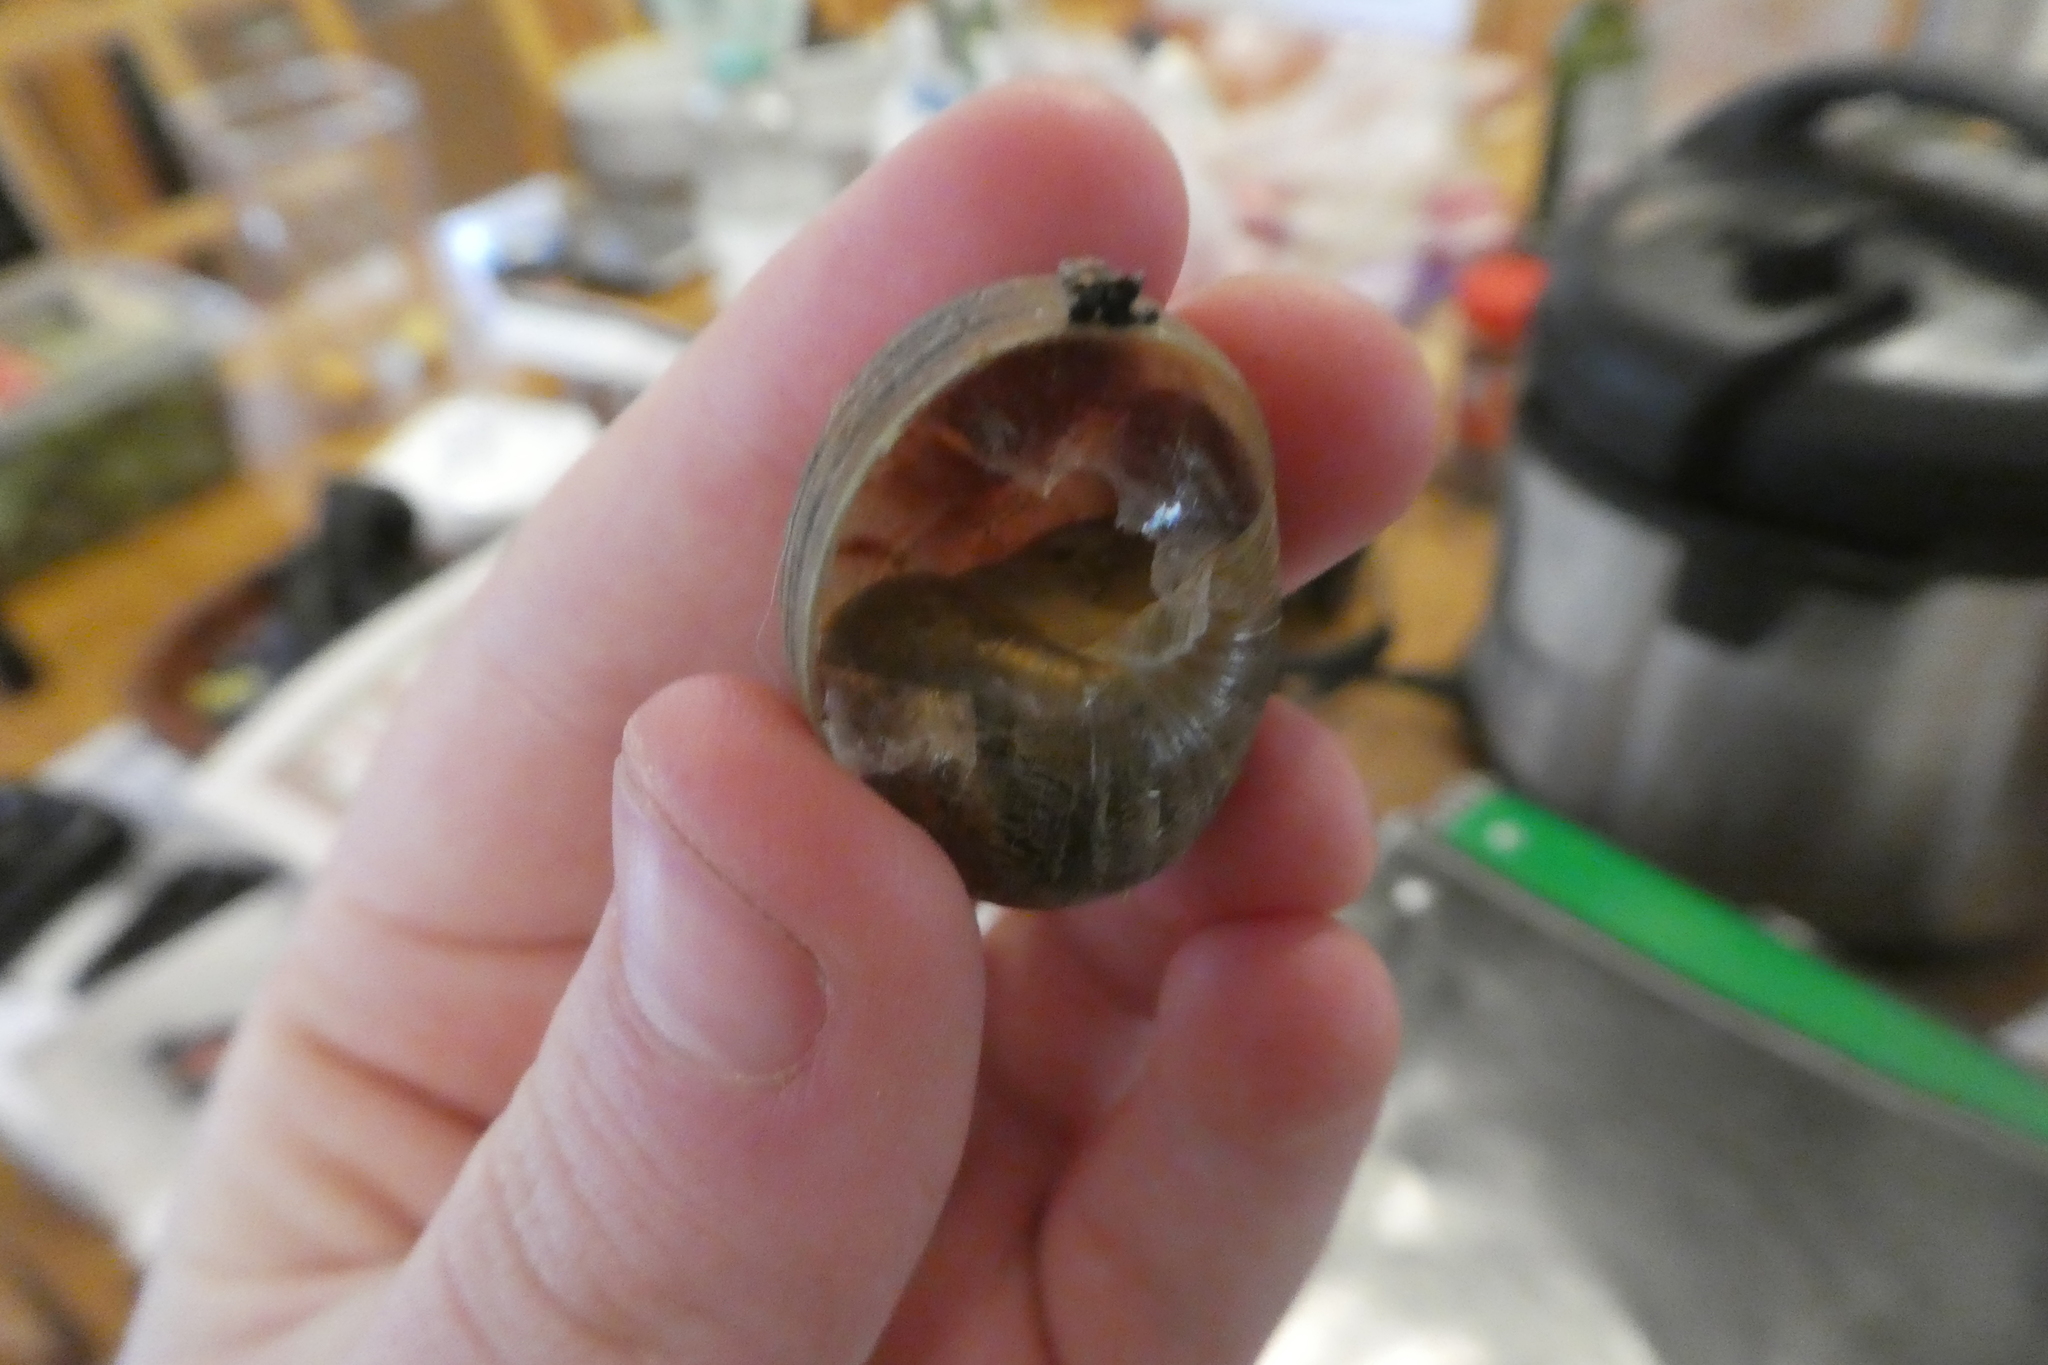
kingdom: Animalia
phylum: Mollusca
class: Gastropoda
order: Stylommatophora
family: Helicidae
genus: Cornu
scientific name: Cornu aspersum
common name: Brown garden snail
